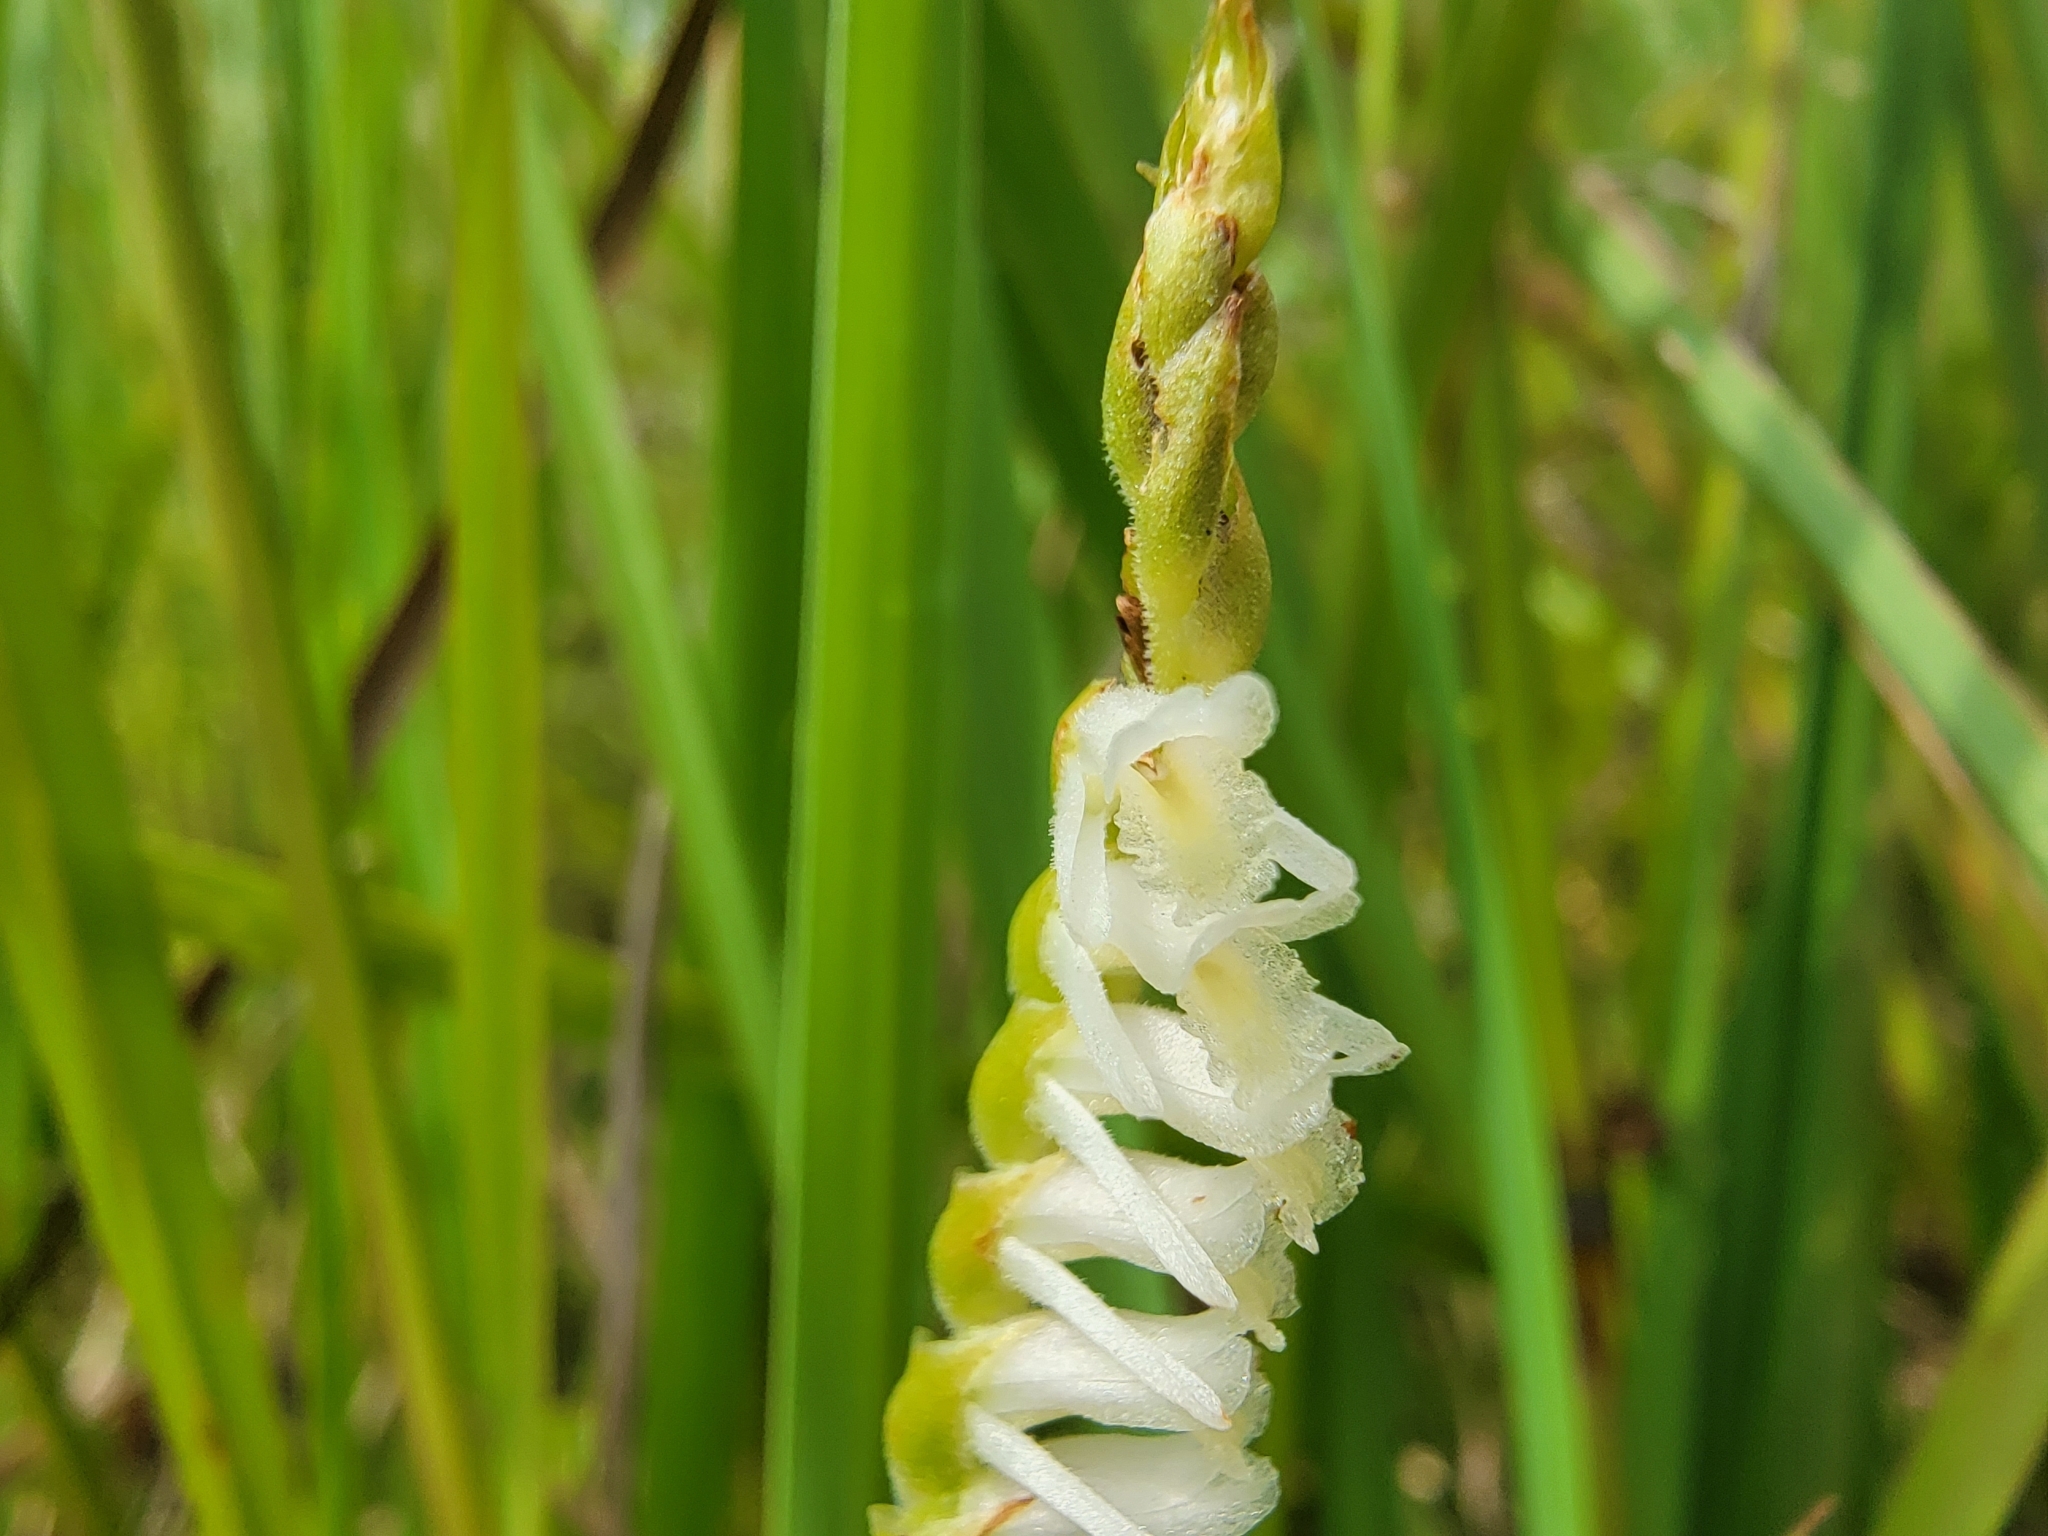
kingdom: Plantae
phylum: Tracheophyta
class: Liliopsida
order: Asparagales
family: Orchidaceae
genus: Spiranthes
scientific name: Spiranthes vernalis
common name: Spring ladies'-tresses
